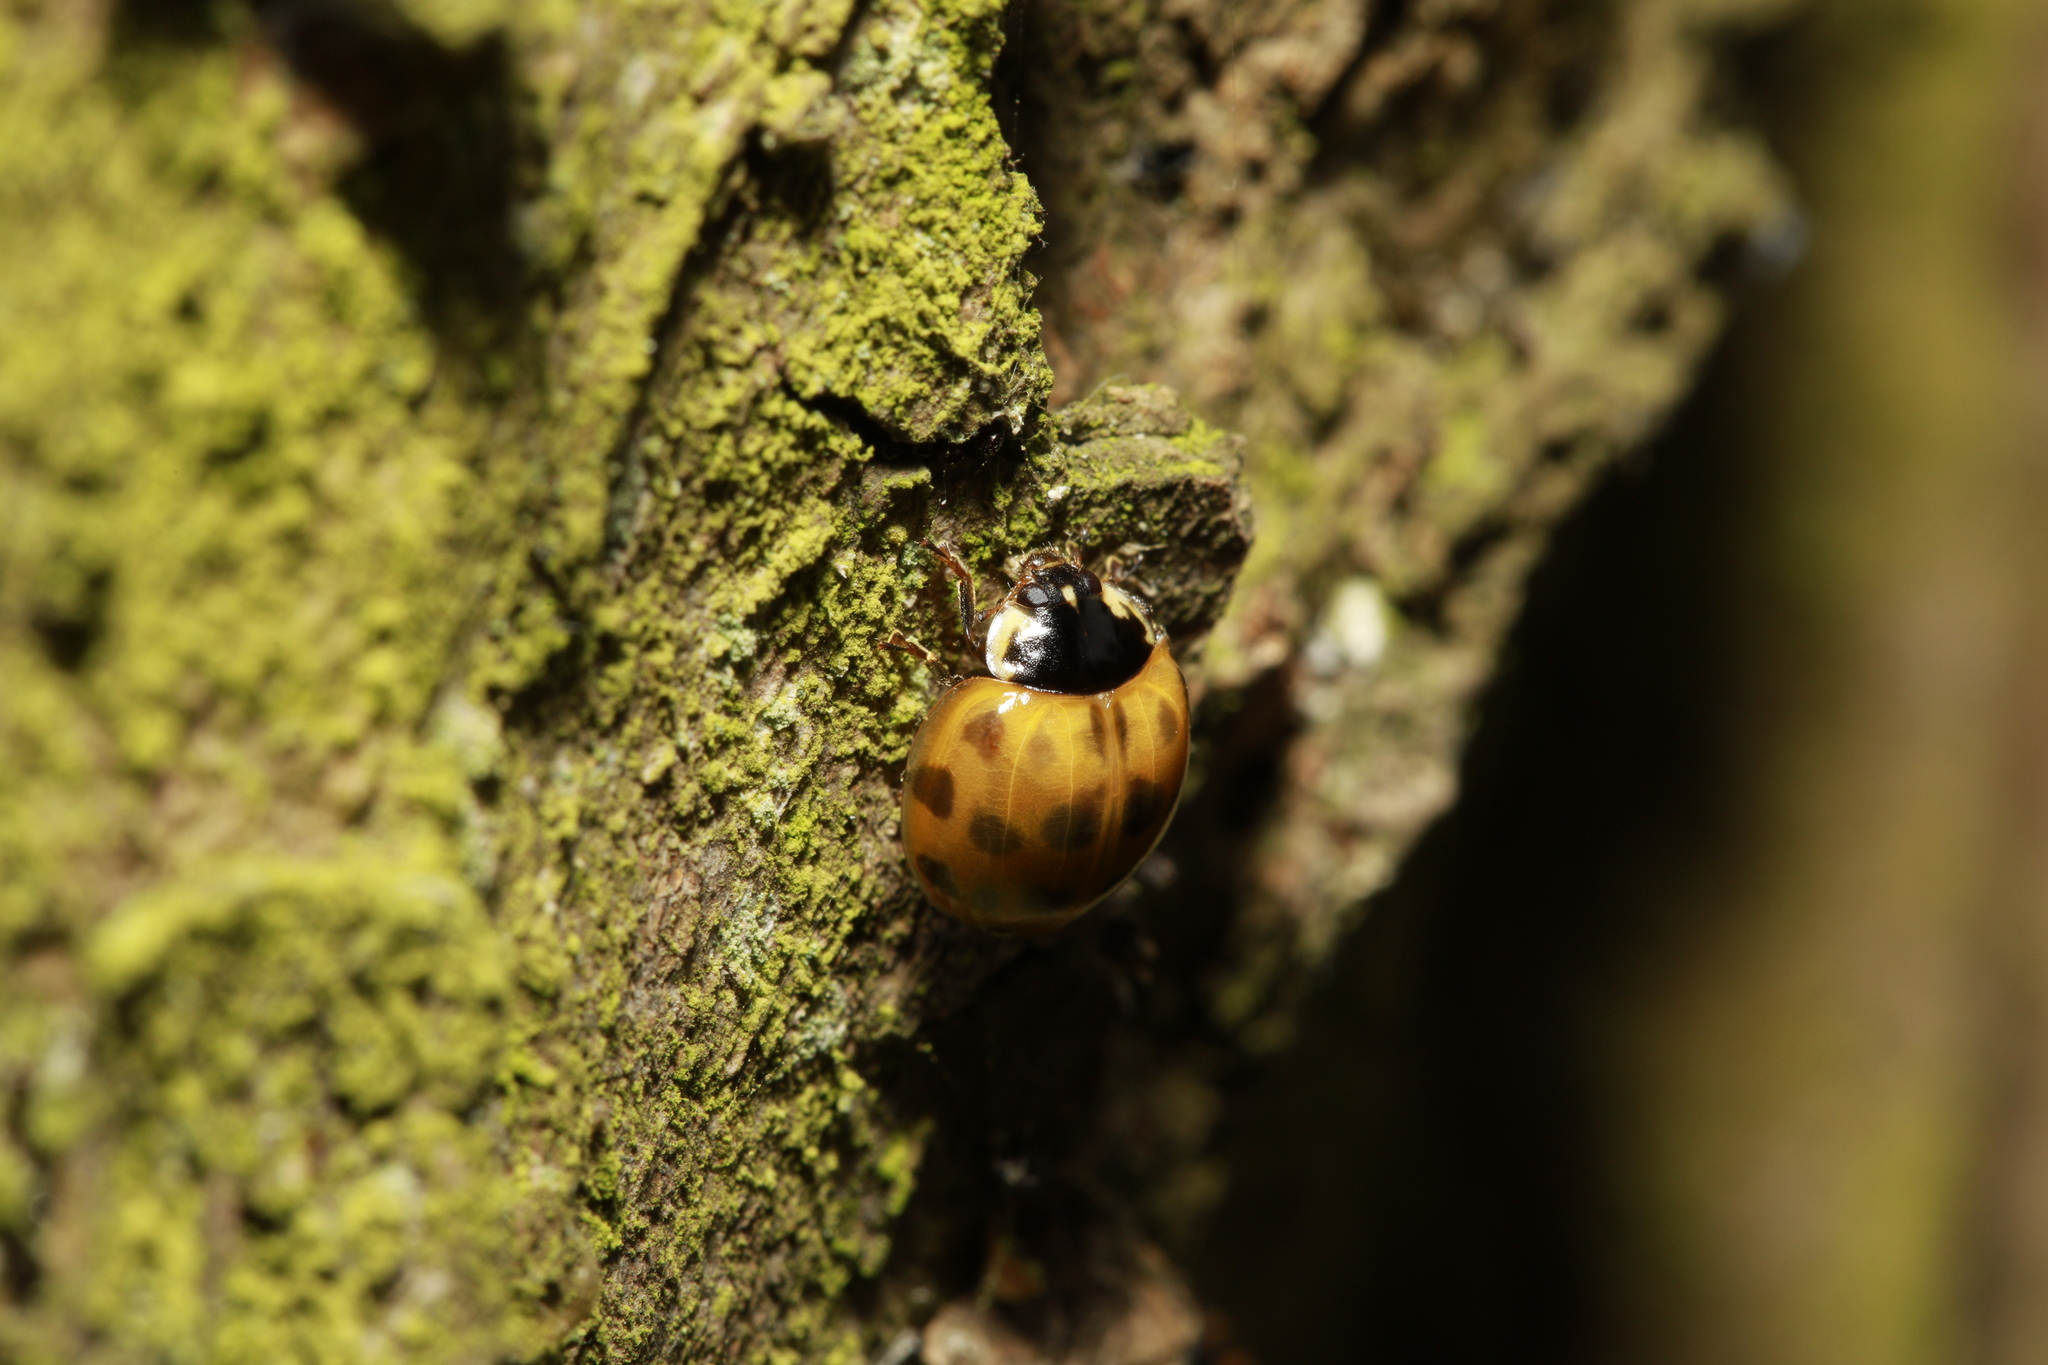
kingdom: Animalia
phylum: Arthropoda
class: Insecta
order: Coleoptera
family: Coccinellidae
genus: Harmonia
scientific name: Harmonia axyridis
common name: Harlequin ladybird
